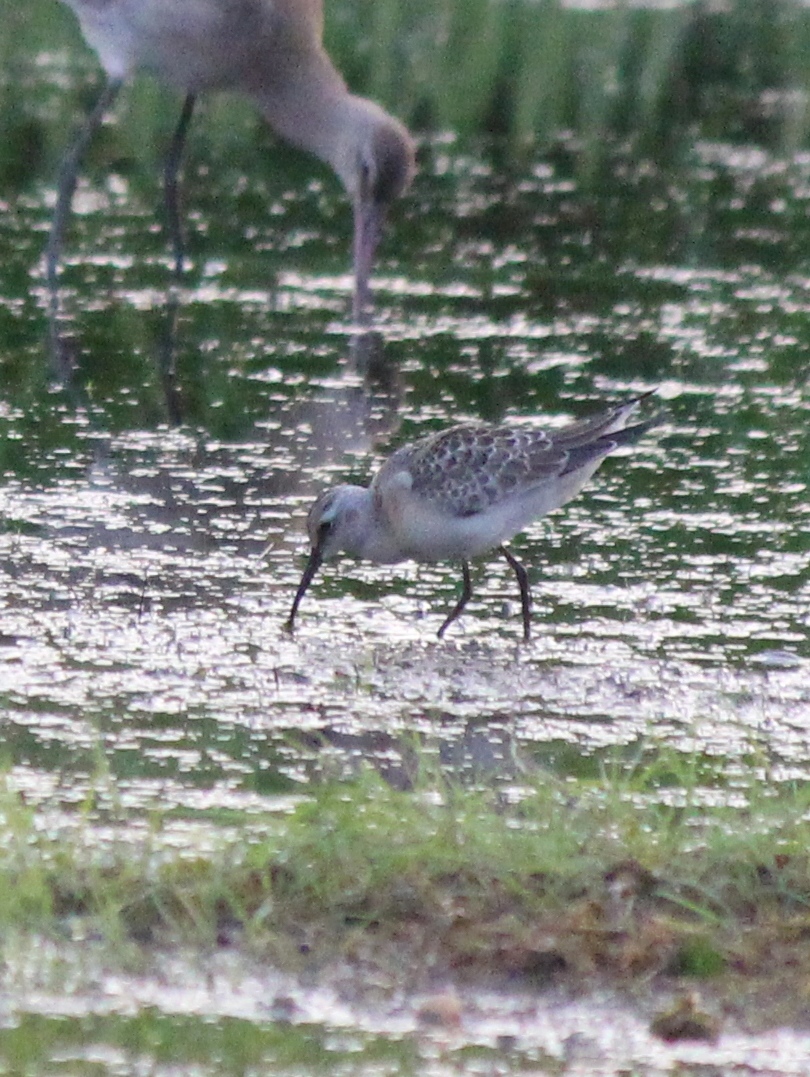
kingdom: Animalia
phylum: Chordata
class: Aves
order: Charadriiformes
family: Scolopacidae
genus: Calidris
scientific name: Calidris ferruginea
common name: Curlew sandpiper
